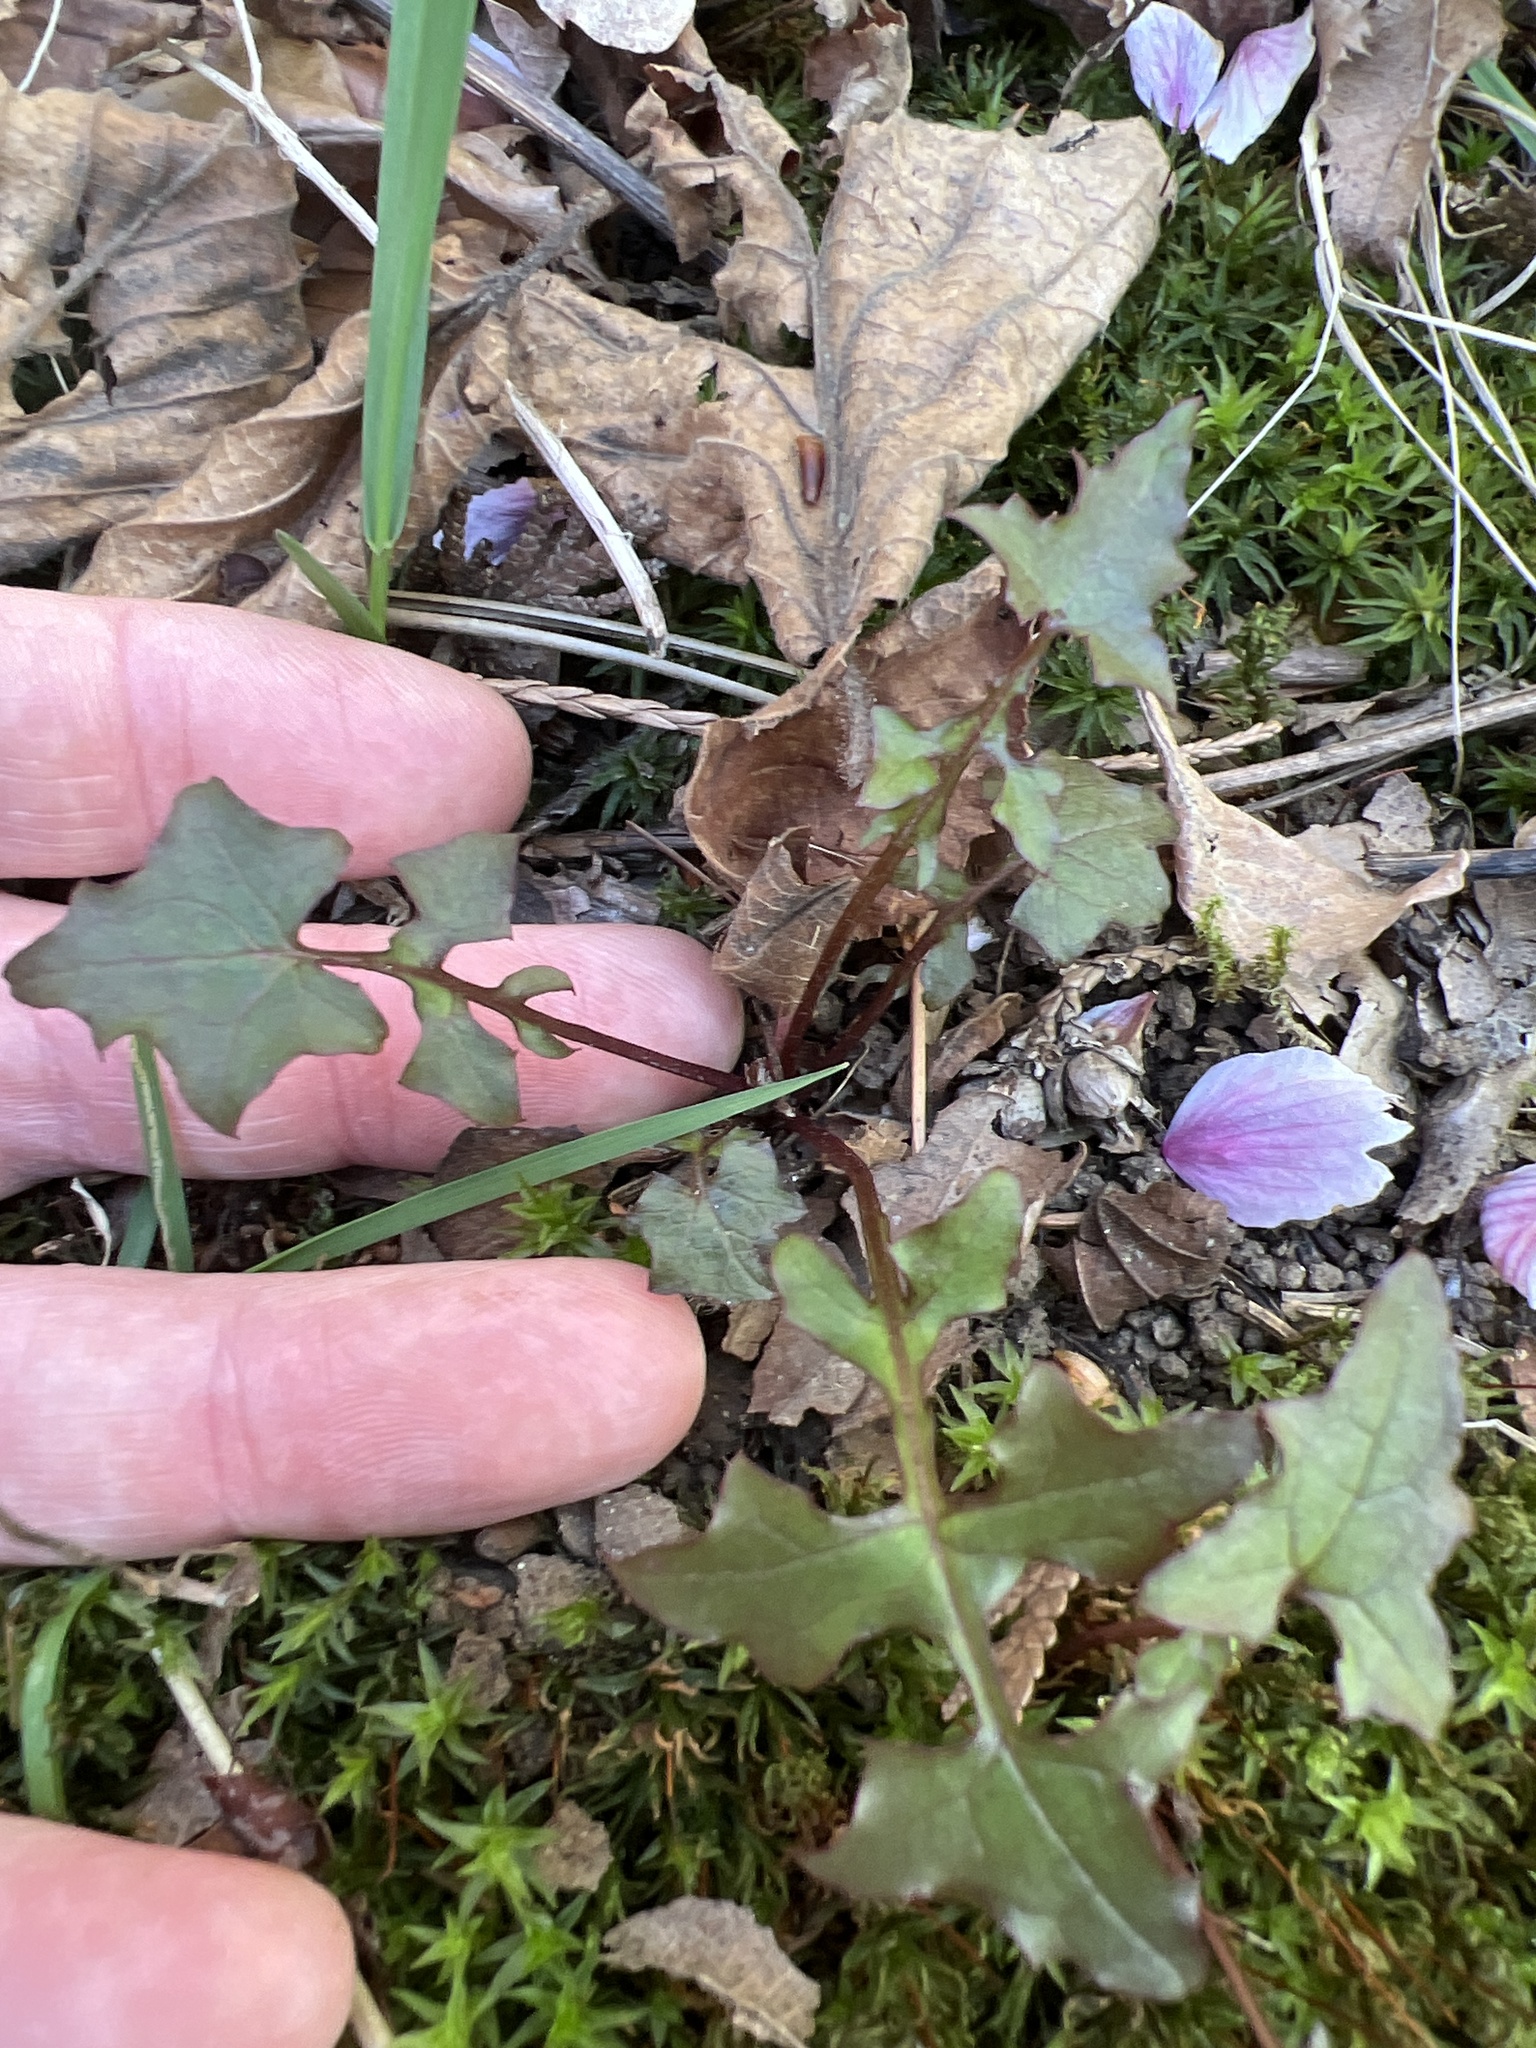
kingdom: Plantae
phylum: Tracheophyta
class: Magnoliopsida
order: Asterales
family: Asteraceae
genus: Mycelis
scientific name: Mycelis muralis
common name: Wall lettuce
